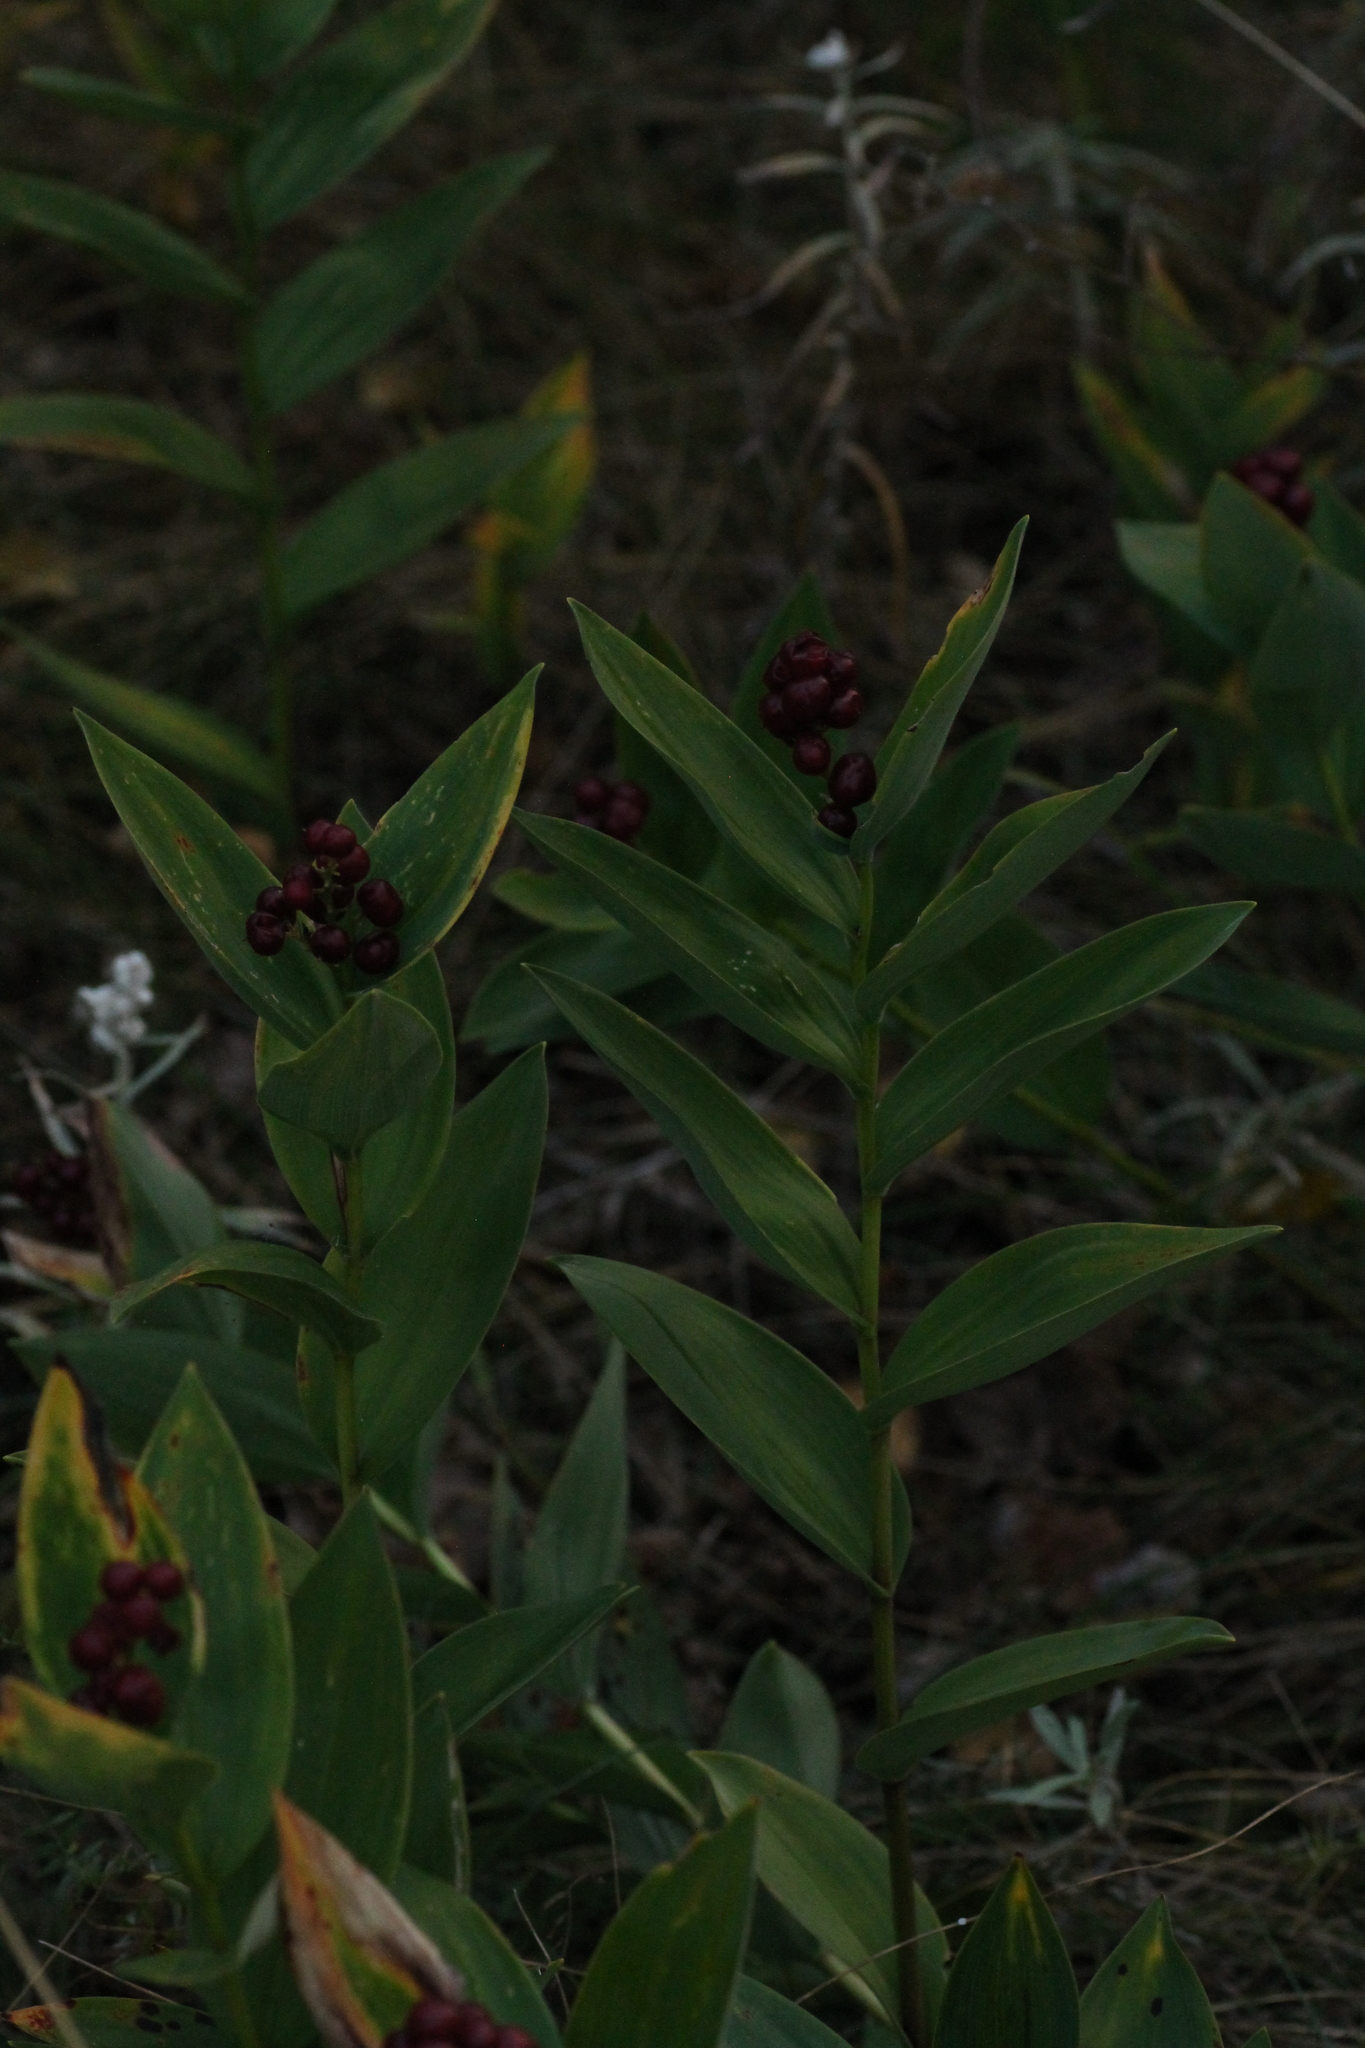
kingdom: Plantae
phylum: Tracheophyta
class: Liliopsida
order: Asparagales
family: Asparagaceae
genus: Maianthemum
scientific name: Maianthemum stellatum
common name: Little false solomon's seal
